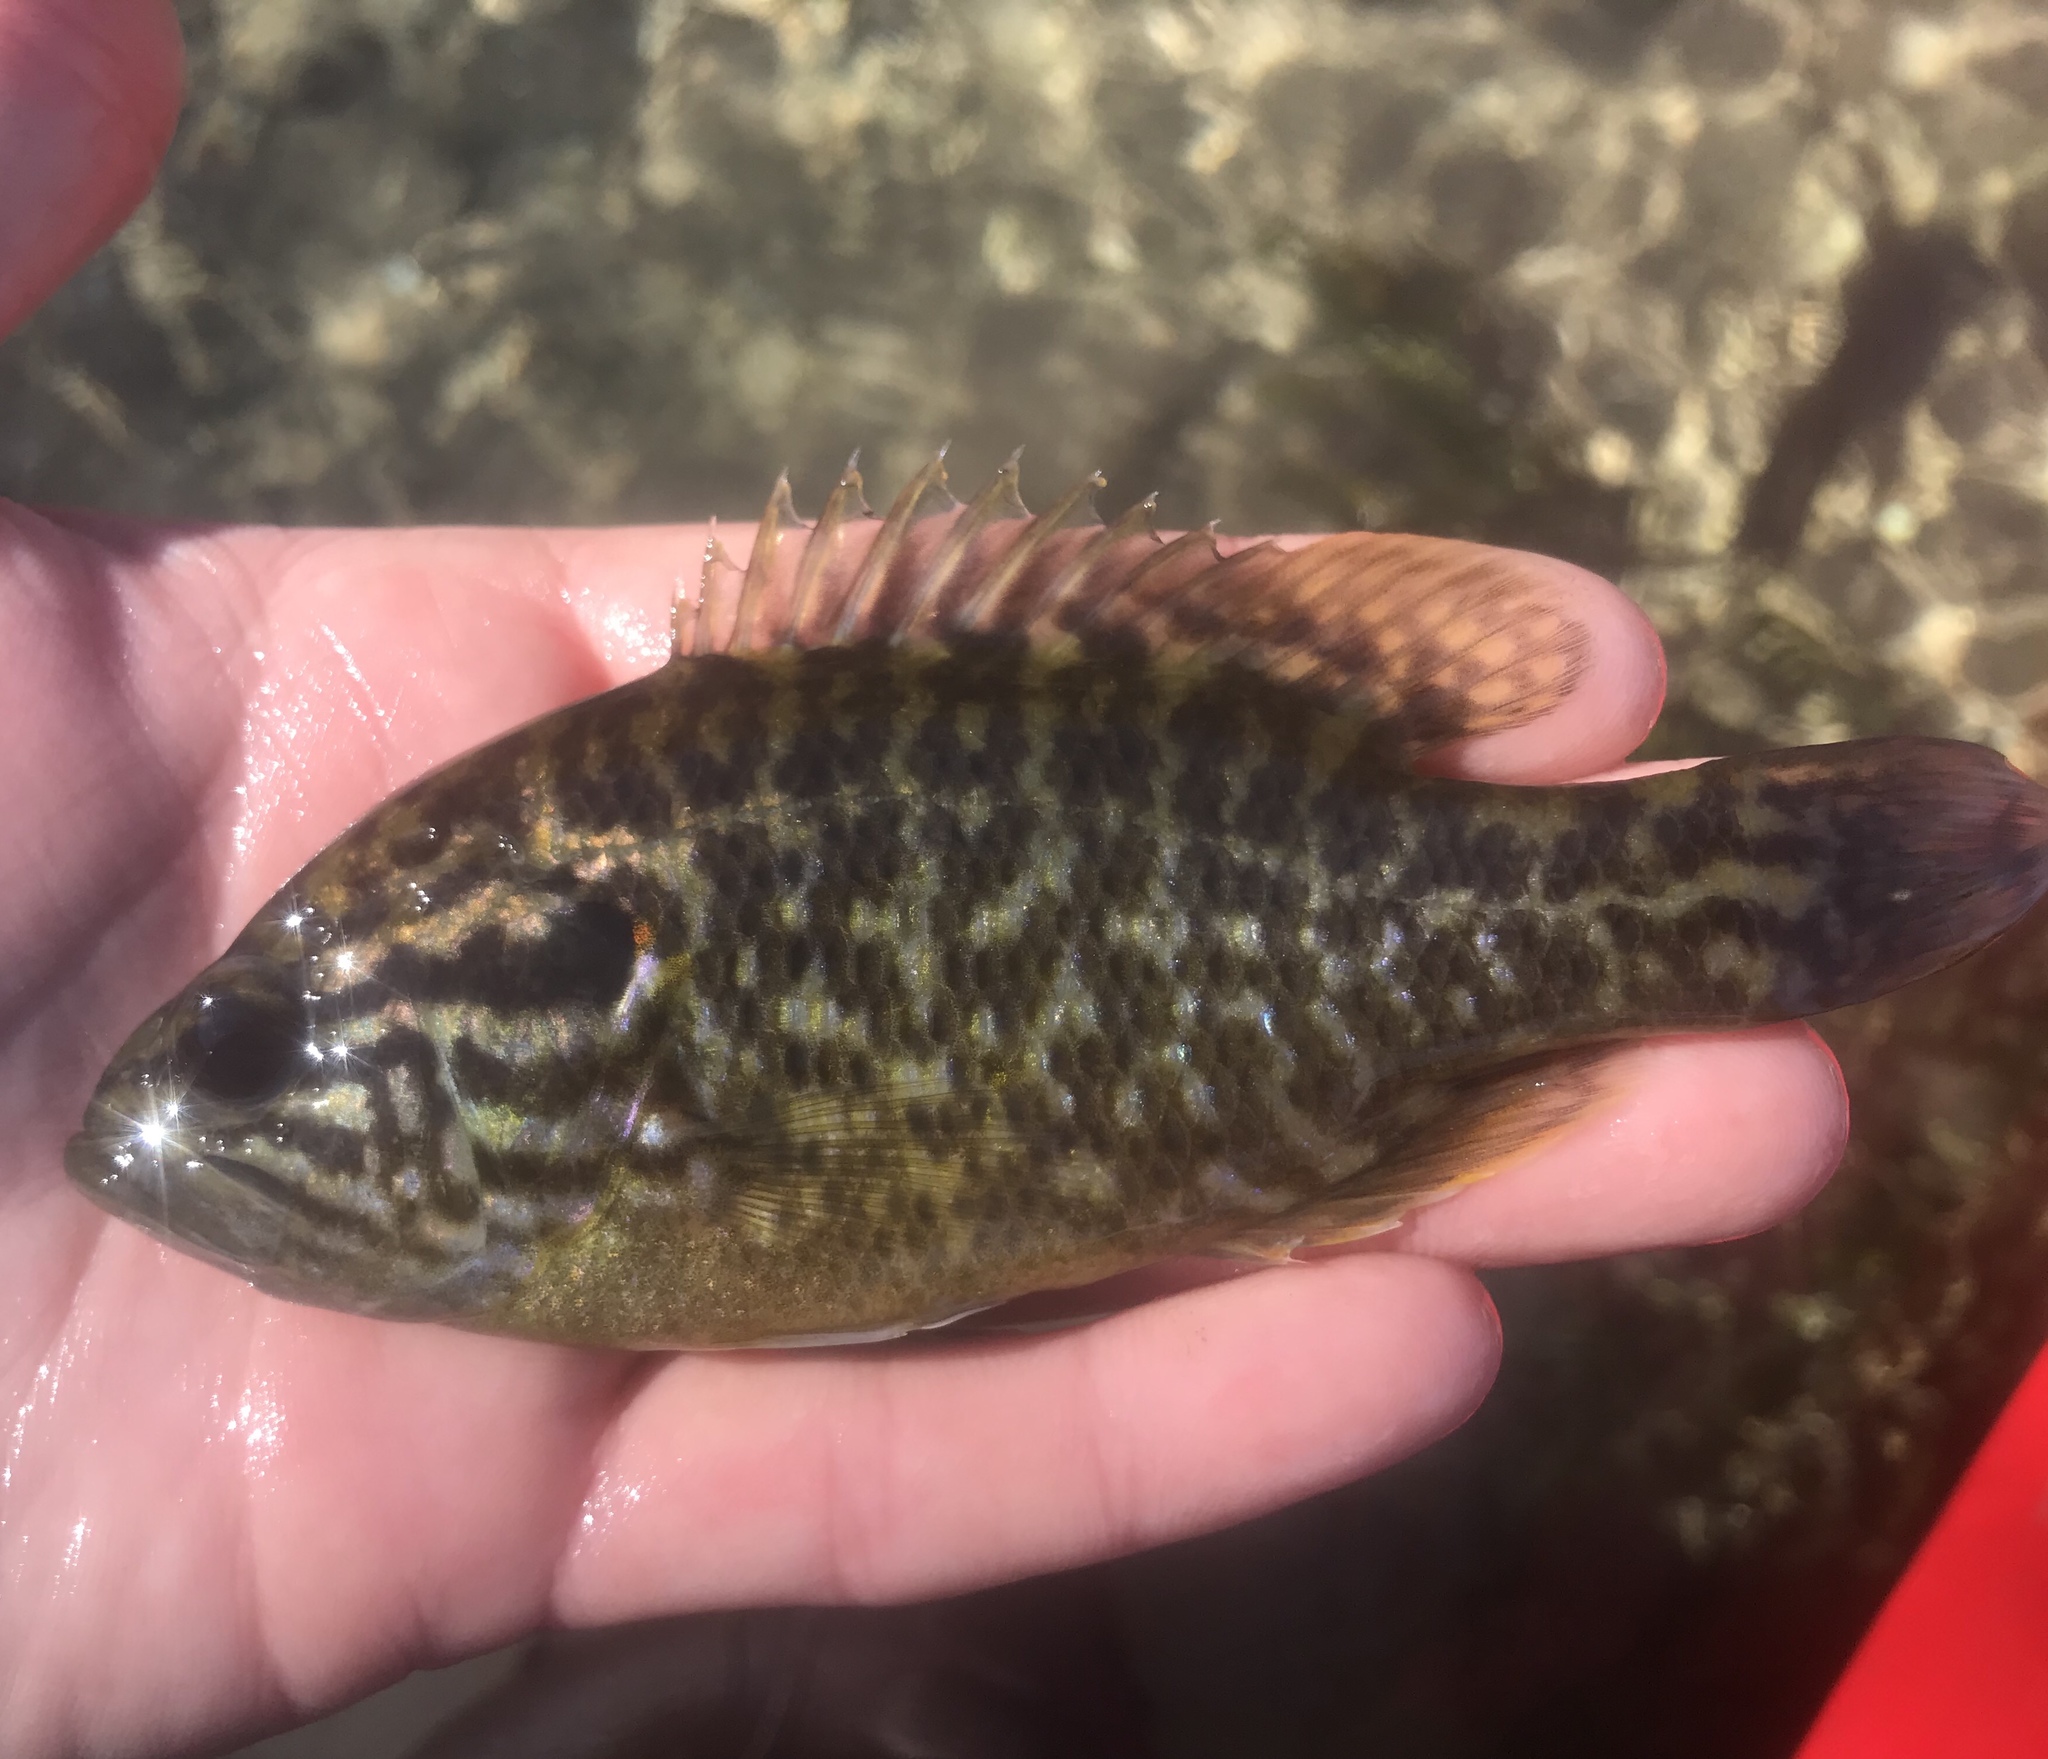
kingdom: Animalia
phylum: Chordata
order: Perciformes
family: Centrarchidae
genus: Lepomis
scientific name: Lepomis gulosus
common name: Warmouth
